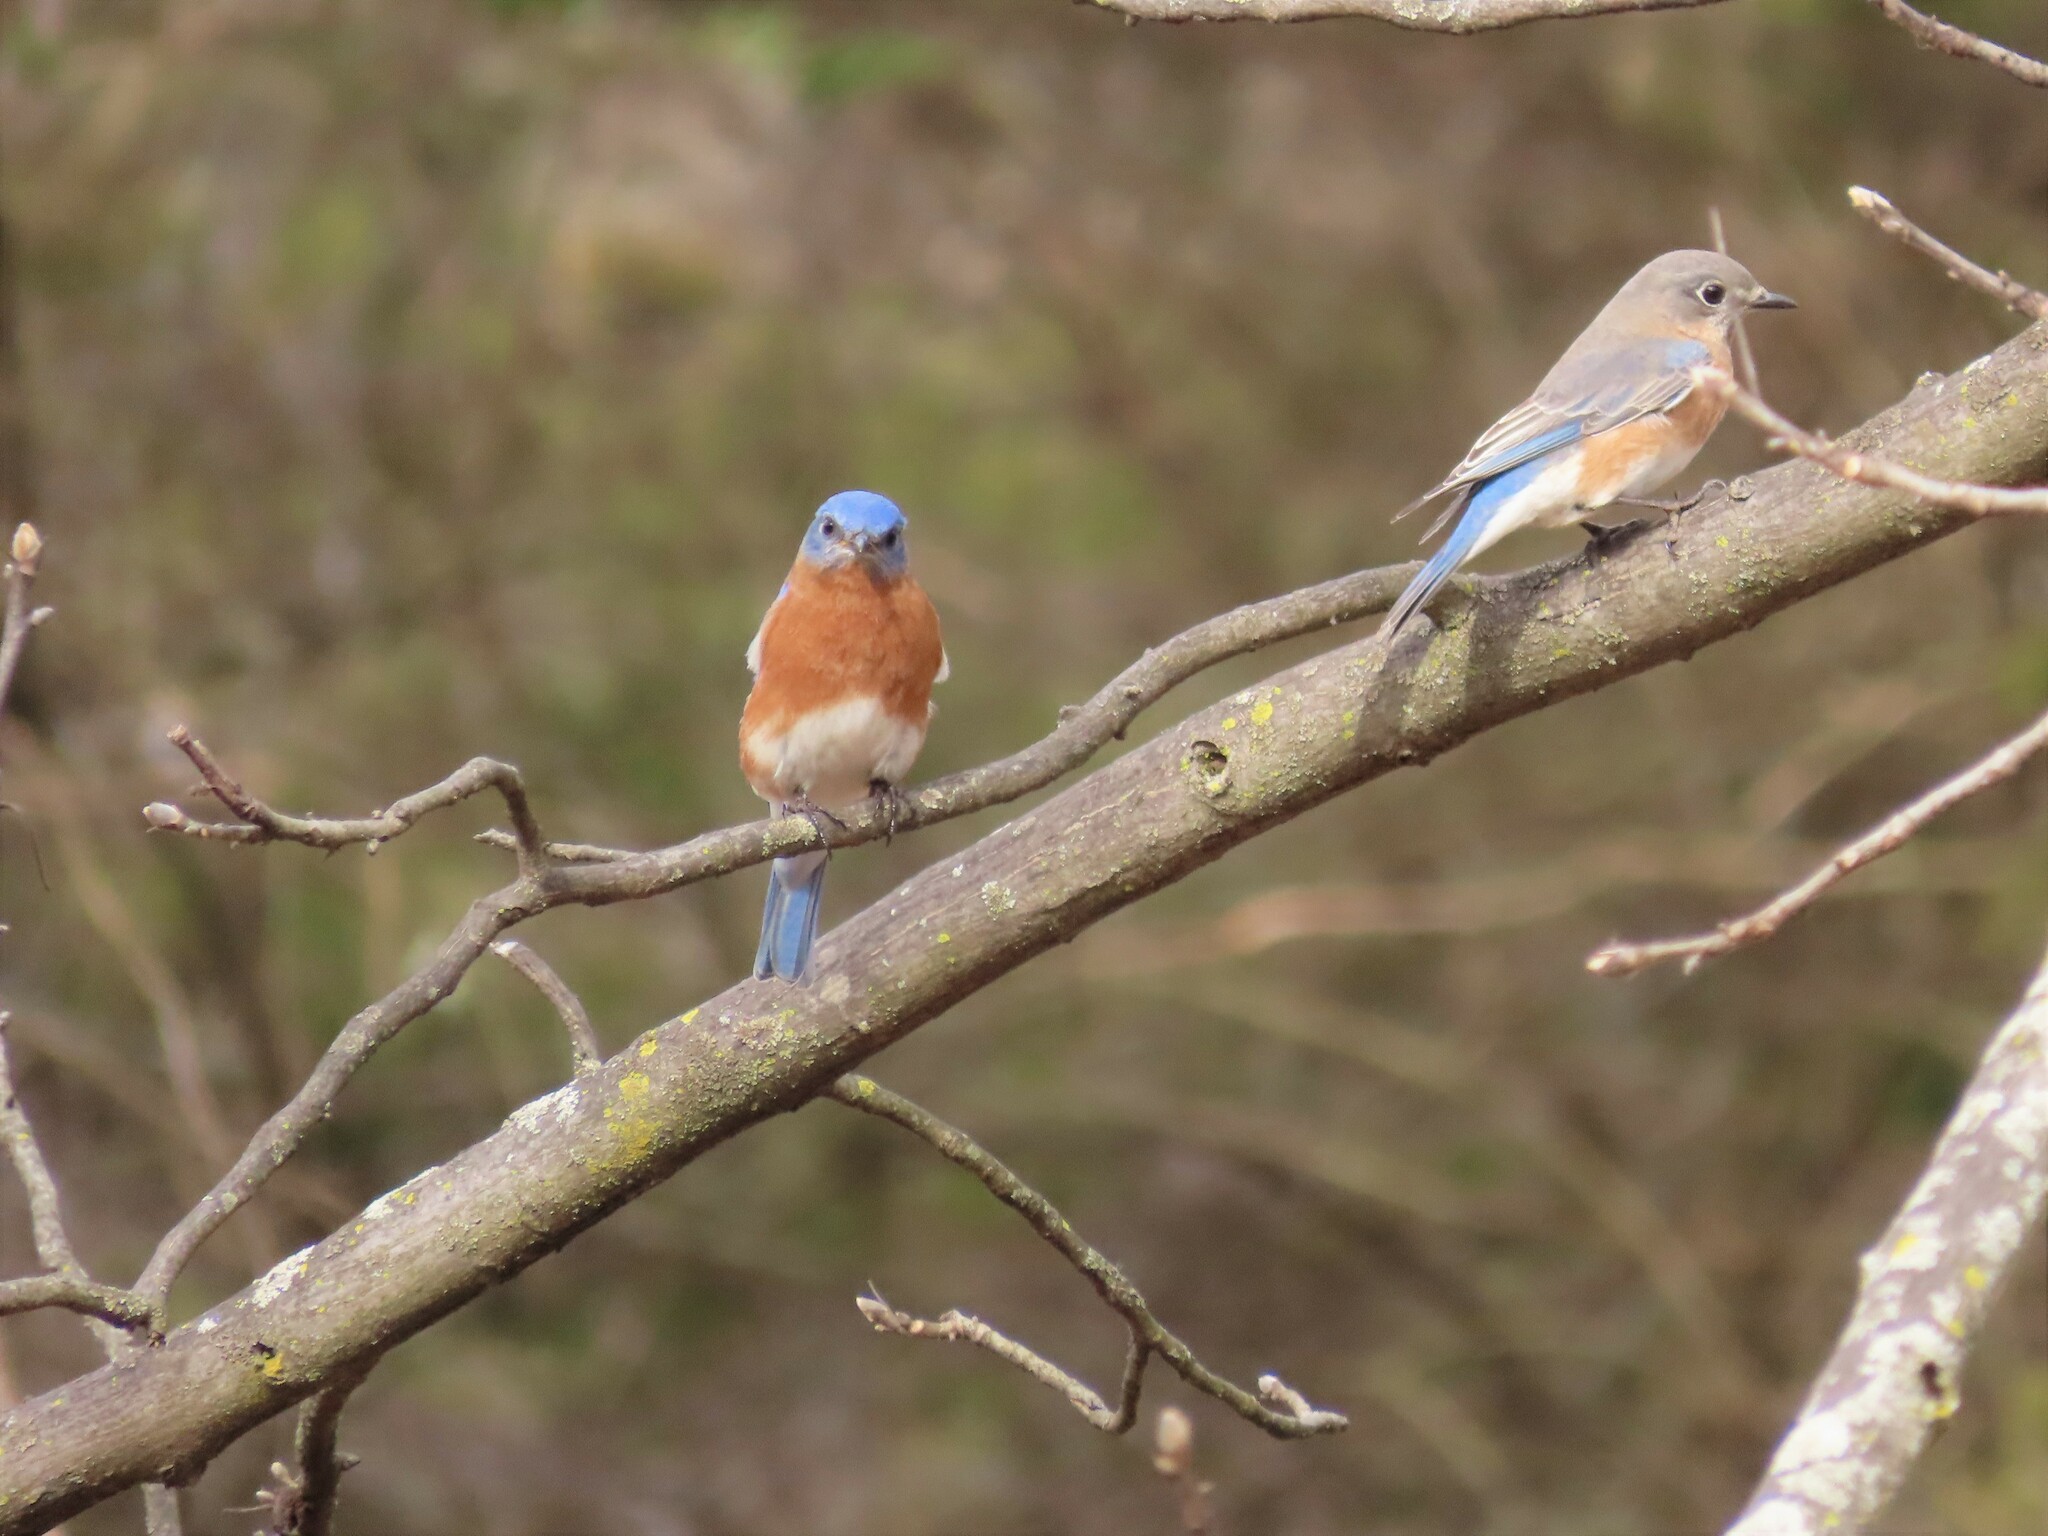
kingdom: Animalia
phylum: Chordata
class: Aves
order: Passeriformes
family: Turdidae
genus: Sialia
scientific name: Sialia sialis
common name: Eastern bluebird
